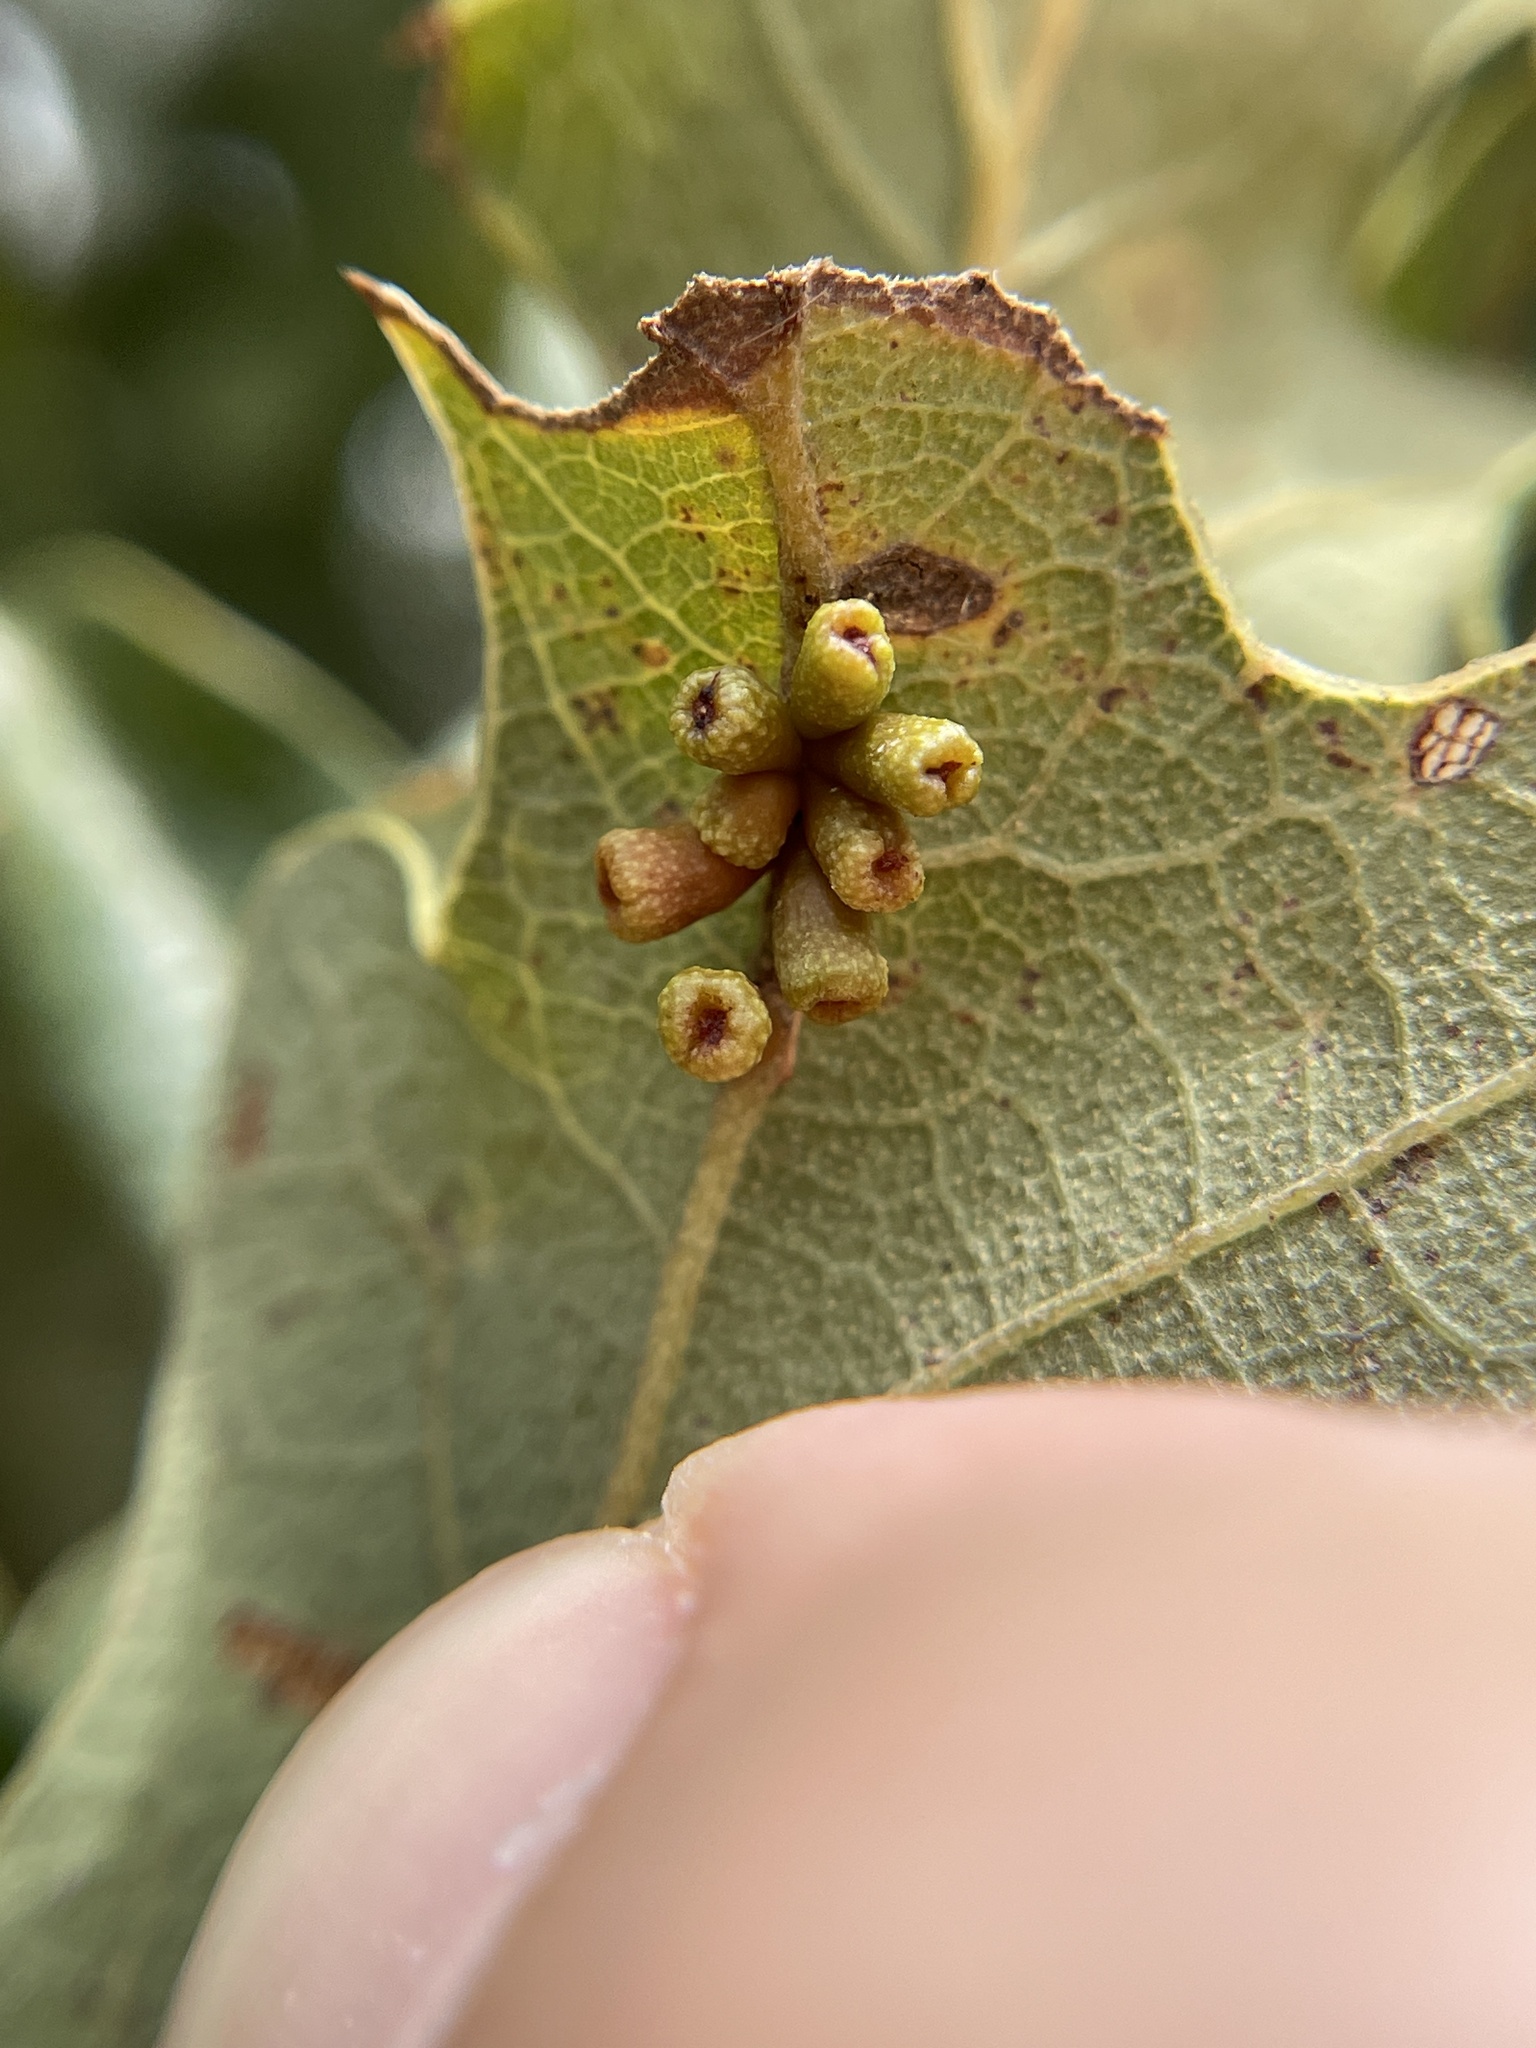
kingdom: Animalia
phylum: Arthropoda
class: Insecta
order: Hymenoptera
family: Cynipidae
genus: Andricus
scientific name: Andricus lustrans
